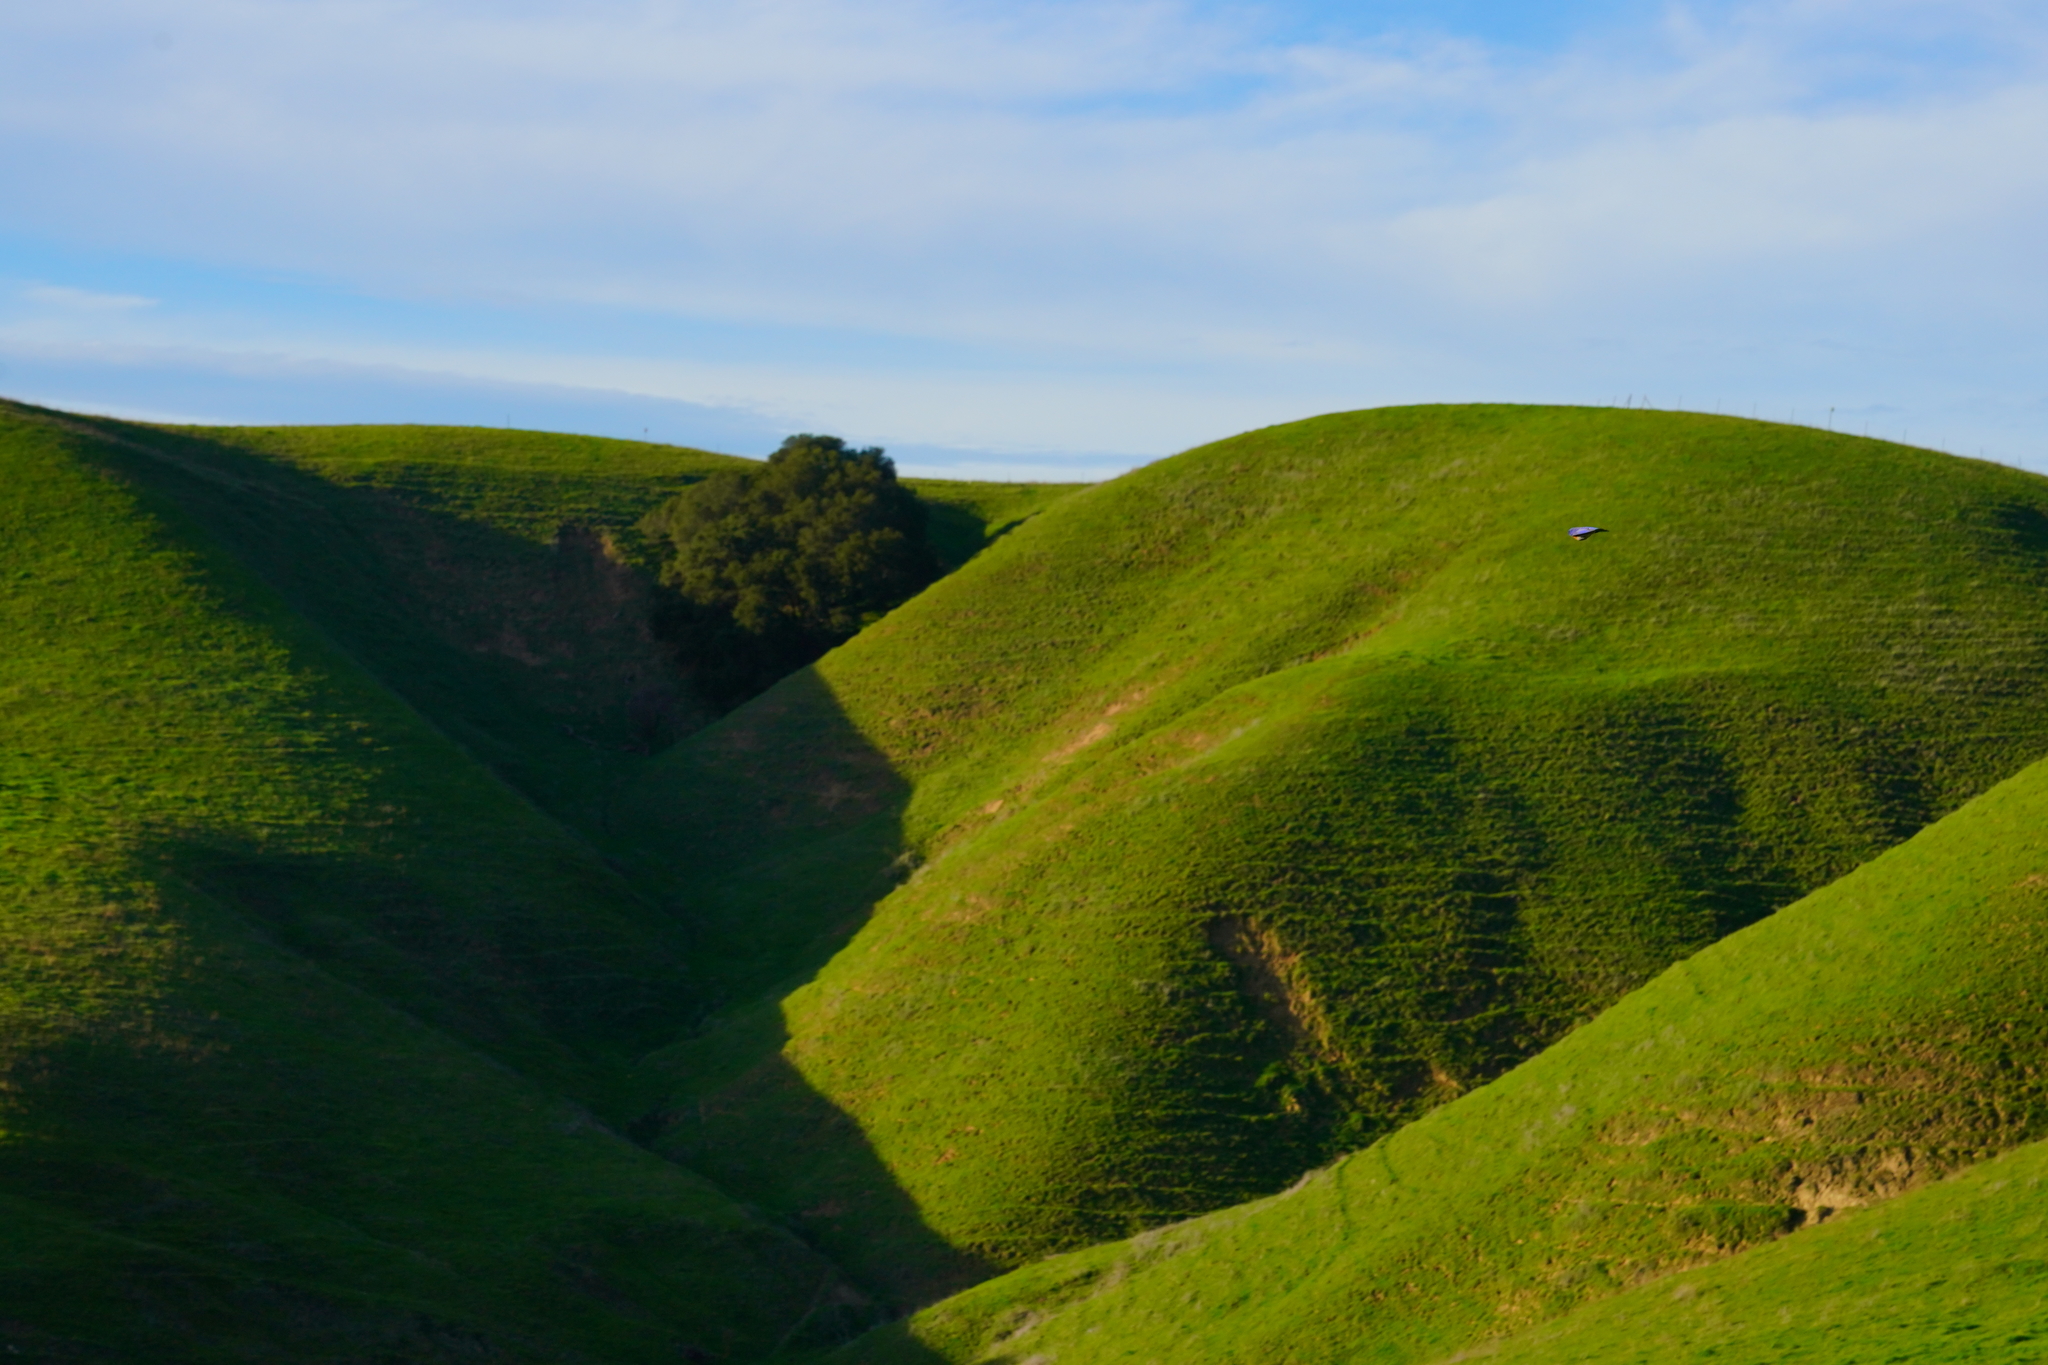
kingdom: Animalia
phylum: Chordata
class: Aves
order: Passeriformes
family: Turdidae
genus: Sialia
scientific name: Sialia mexicana
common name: Western bluebird
